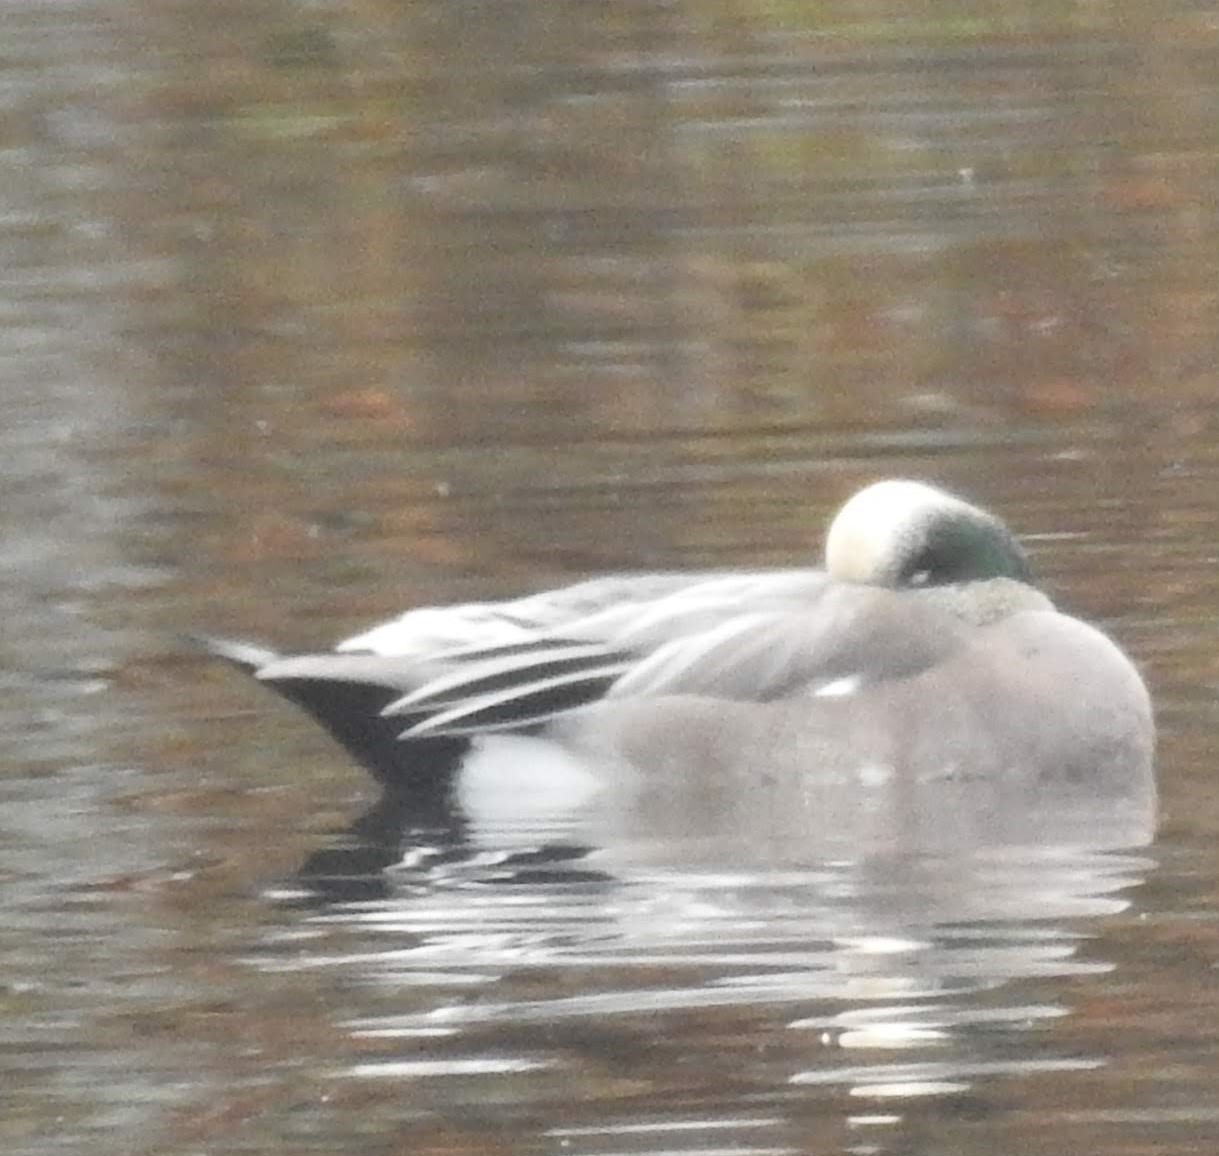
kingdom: Animalia
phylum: Chordata
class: Aves
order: Anseriformes
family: Anatidae
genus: Mareca
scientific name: Mareca americana
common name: American wigeon
